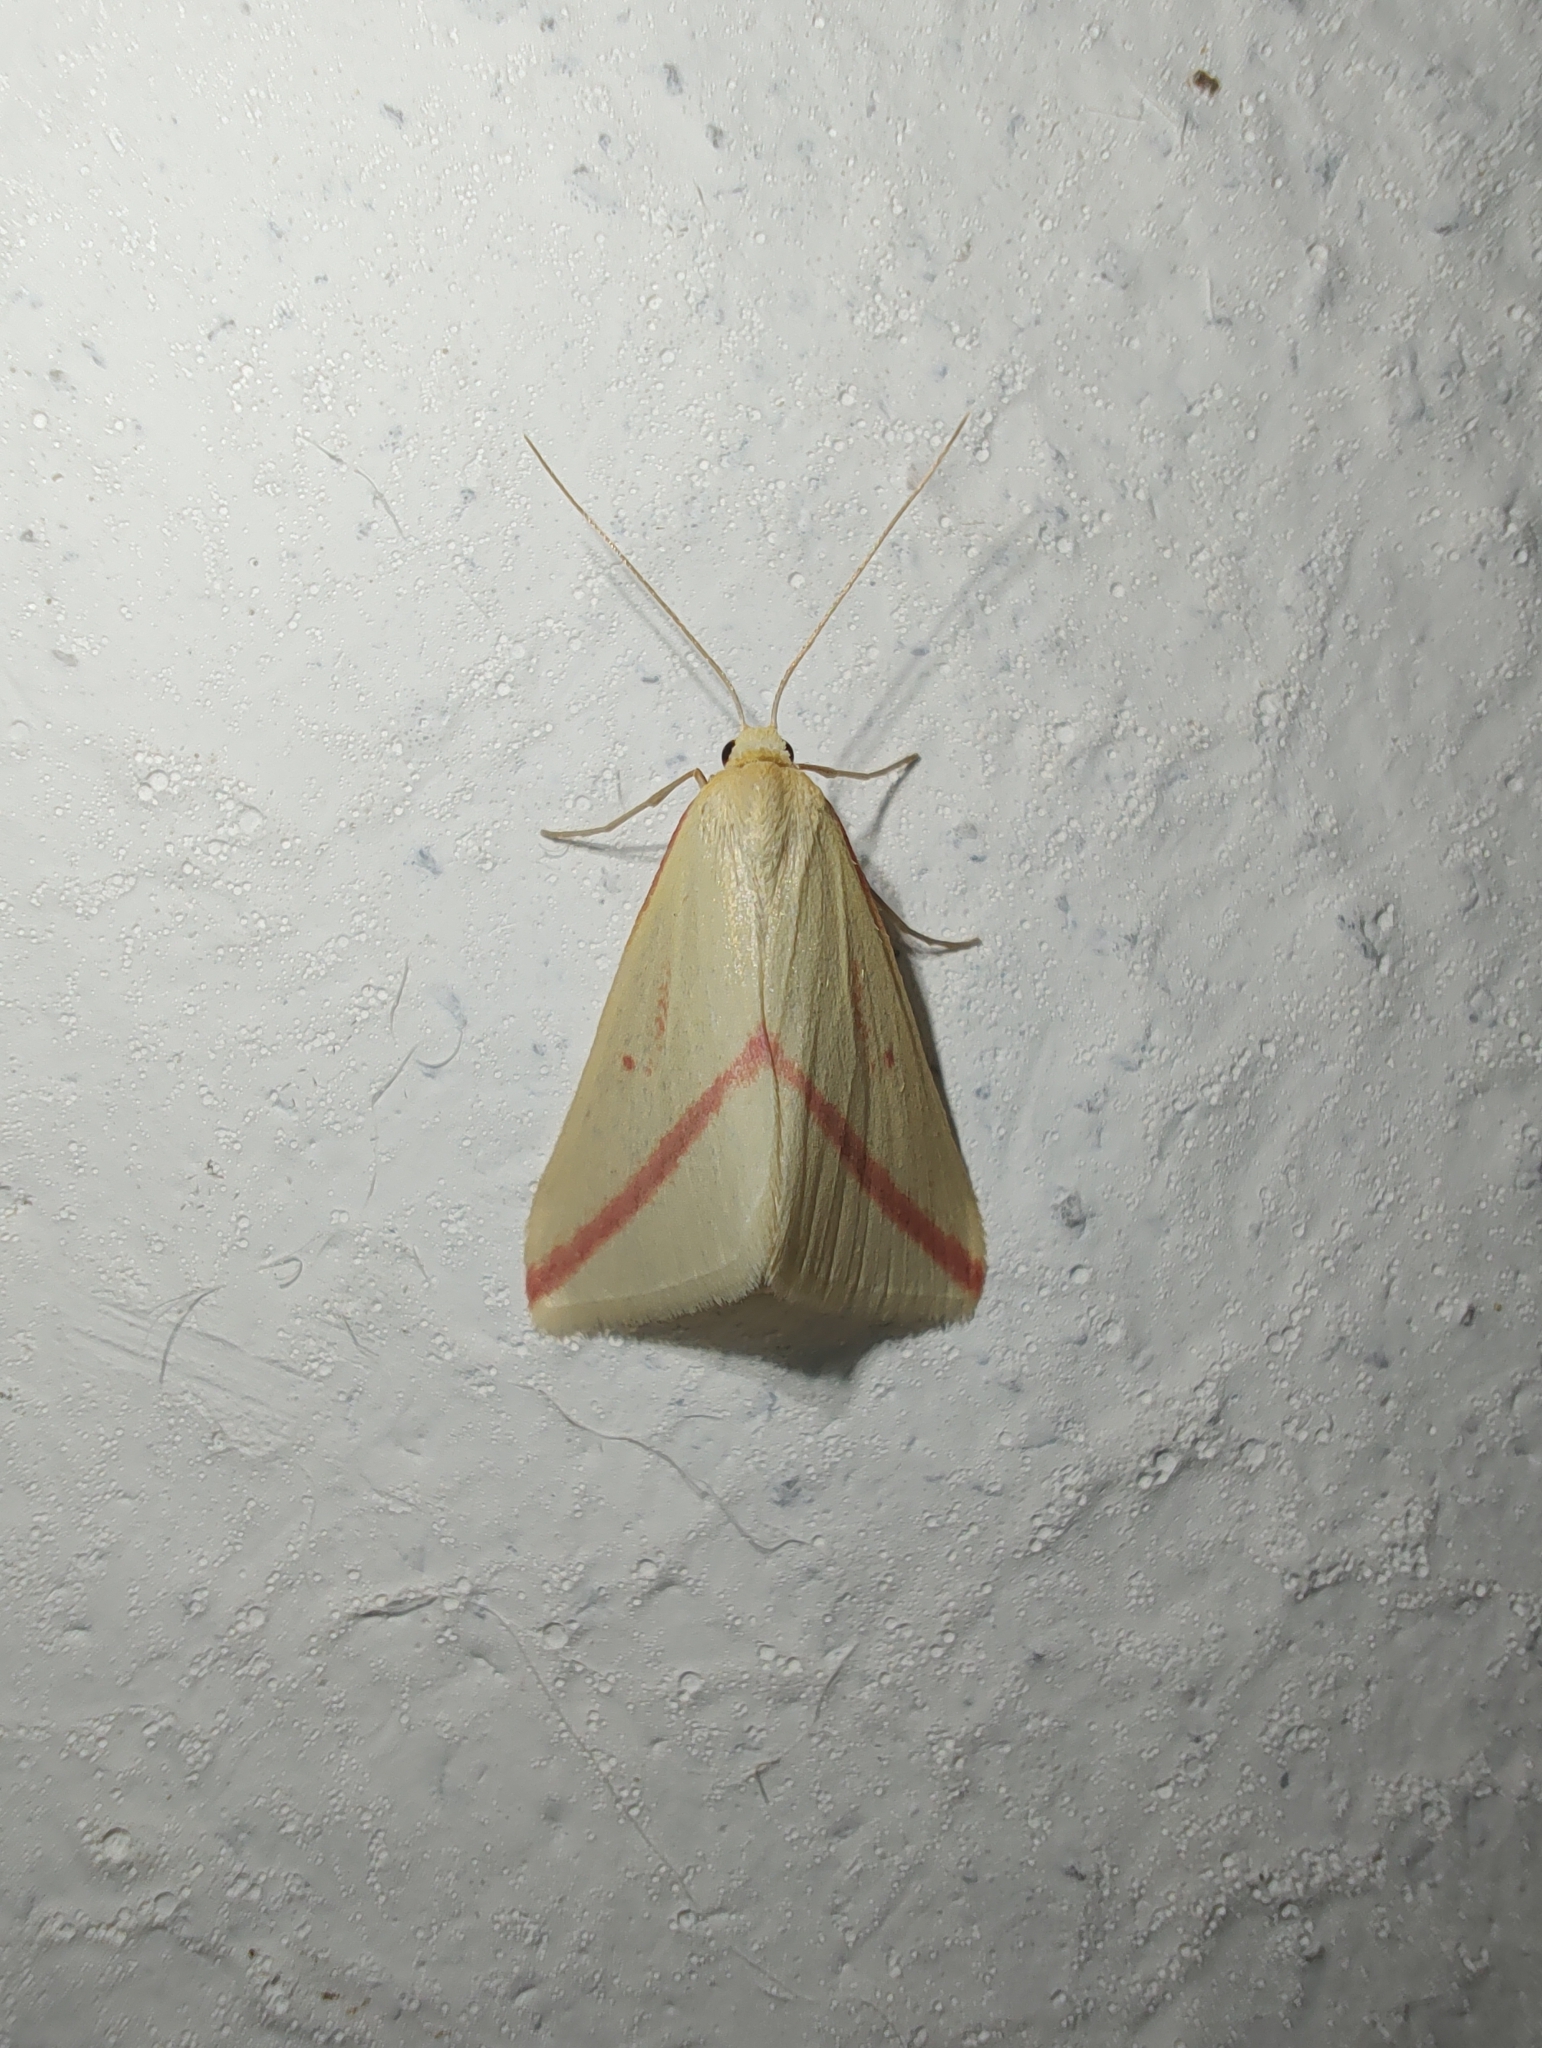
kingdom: Animalia
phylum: Arthropoda
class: Insecta
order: Lepidoptera
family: Geometridae
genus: Rhodometra
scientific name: Rhodometra sacraria
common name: Vestal
